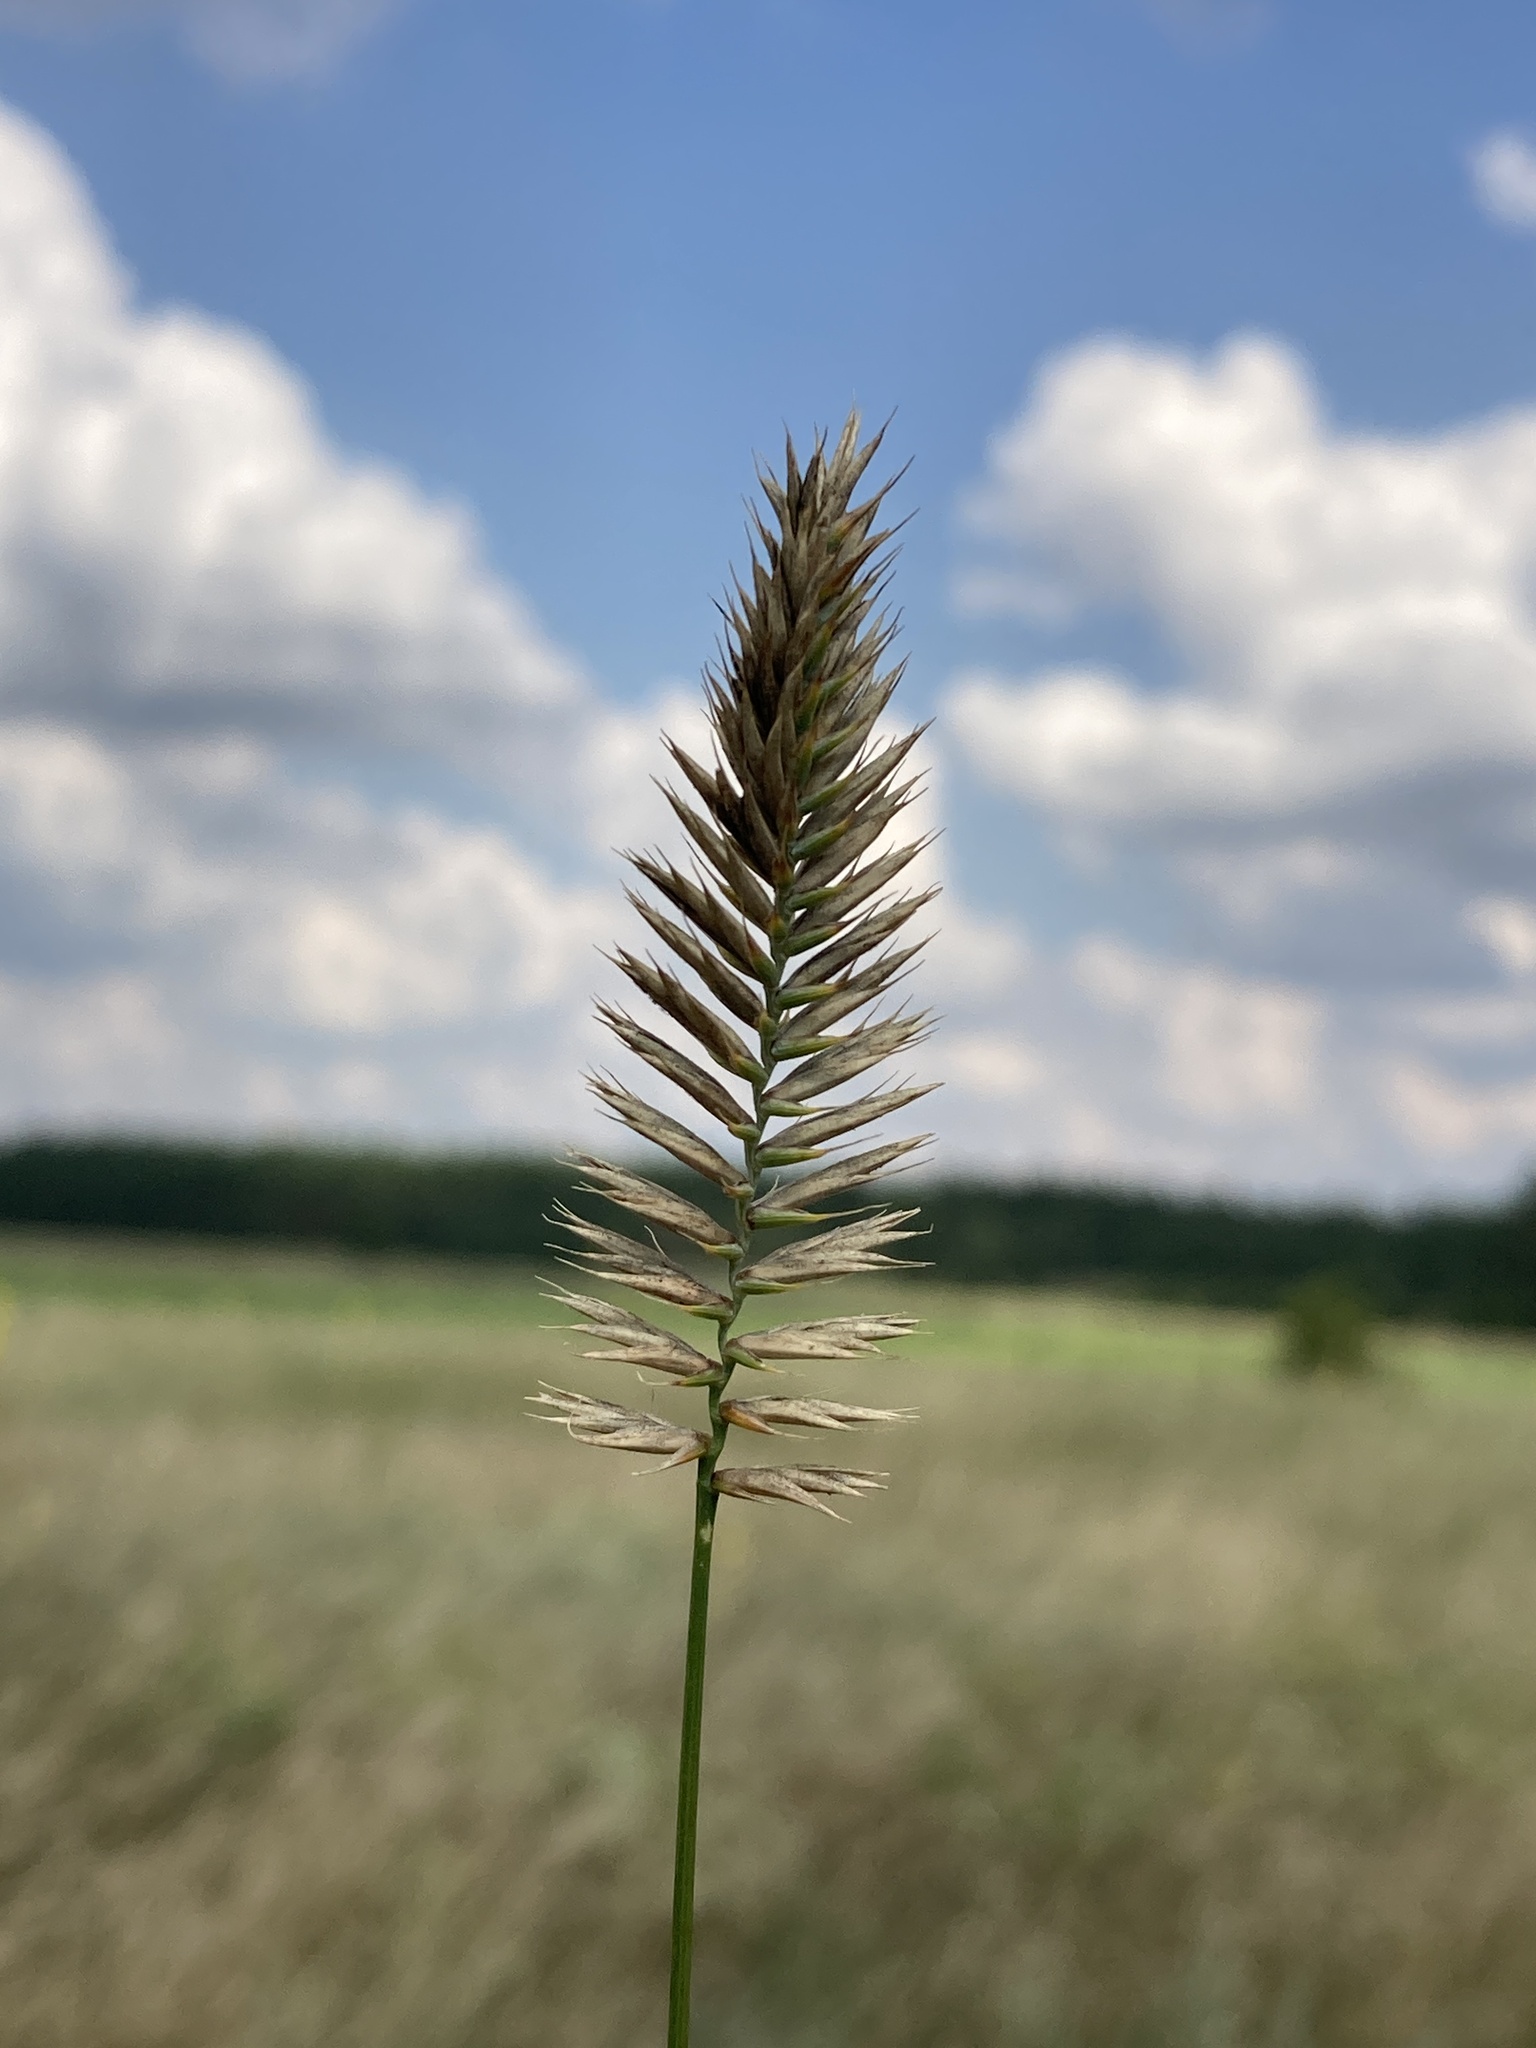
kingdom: Plantae
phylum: Tracheophyta
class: Liliopsida
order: Poales
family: Poaceae
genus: Agropyron
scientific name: Agropyron cristatum
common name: Crested wheatgrass
